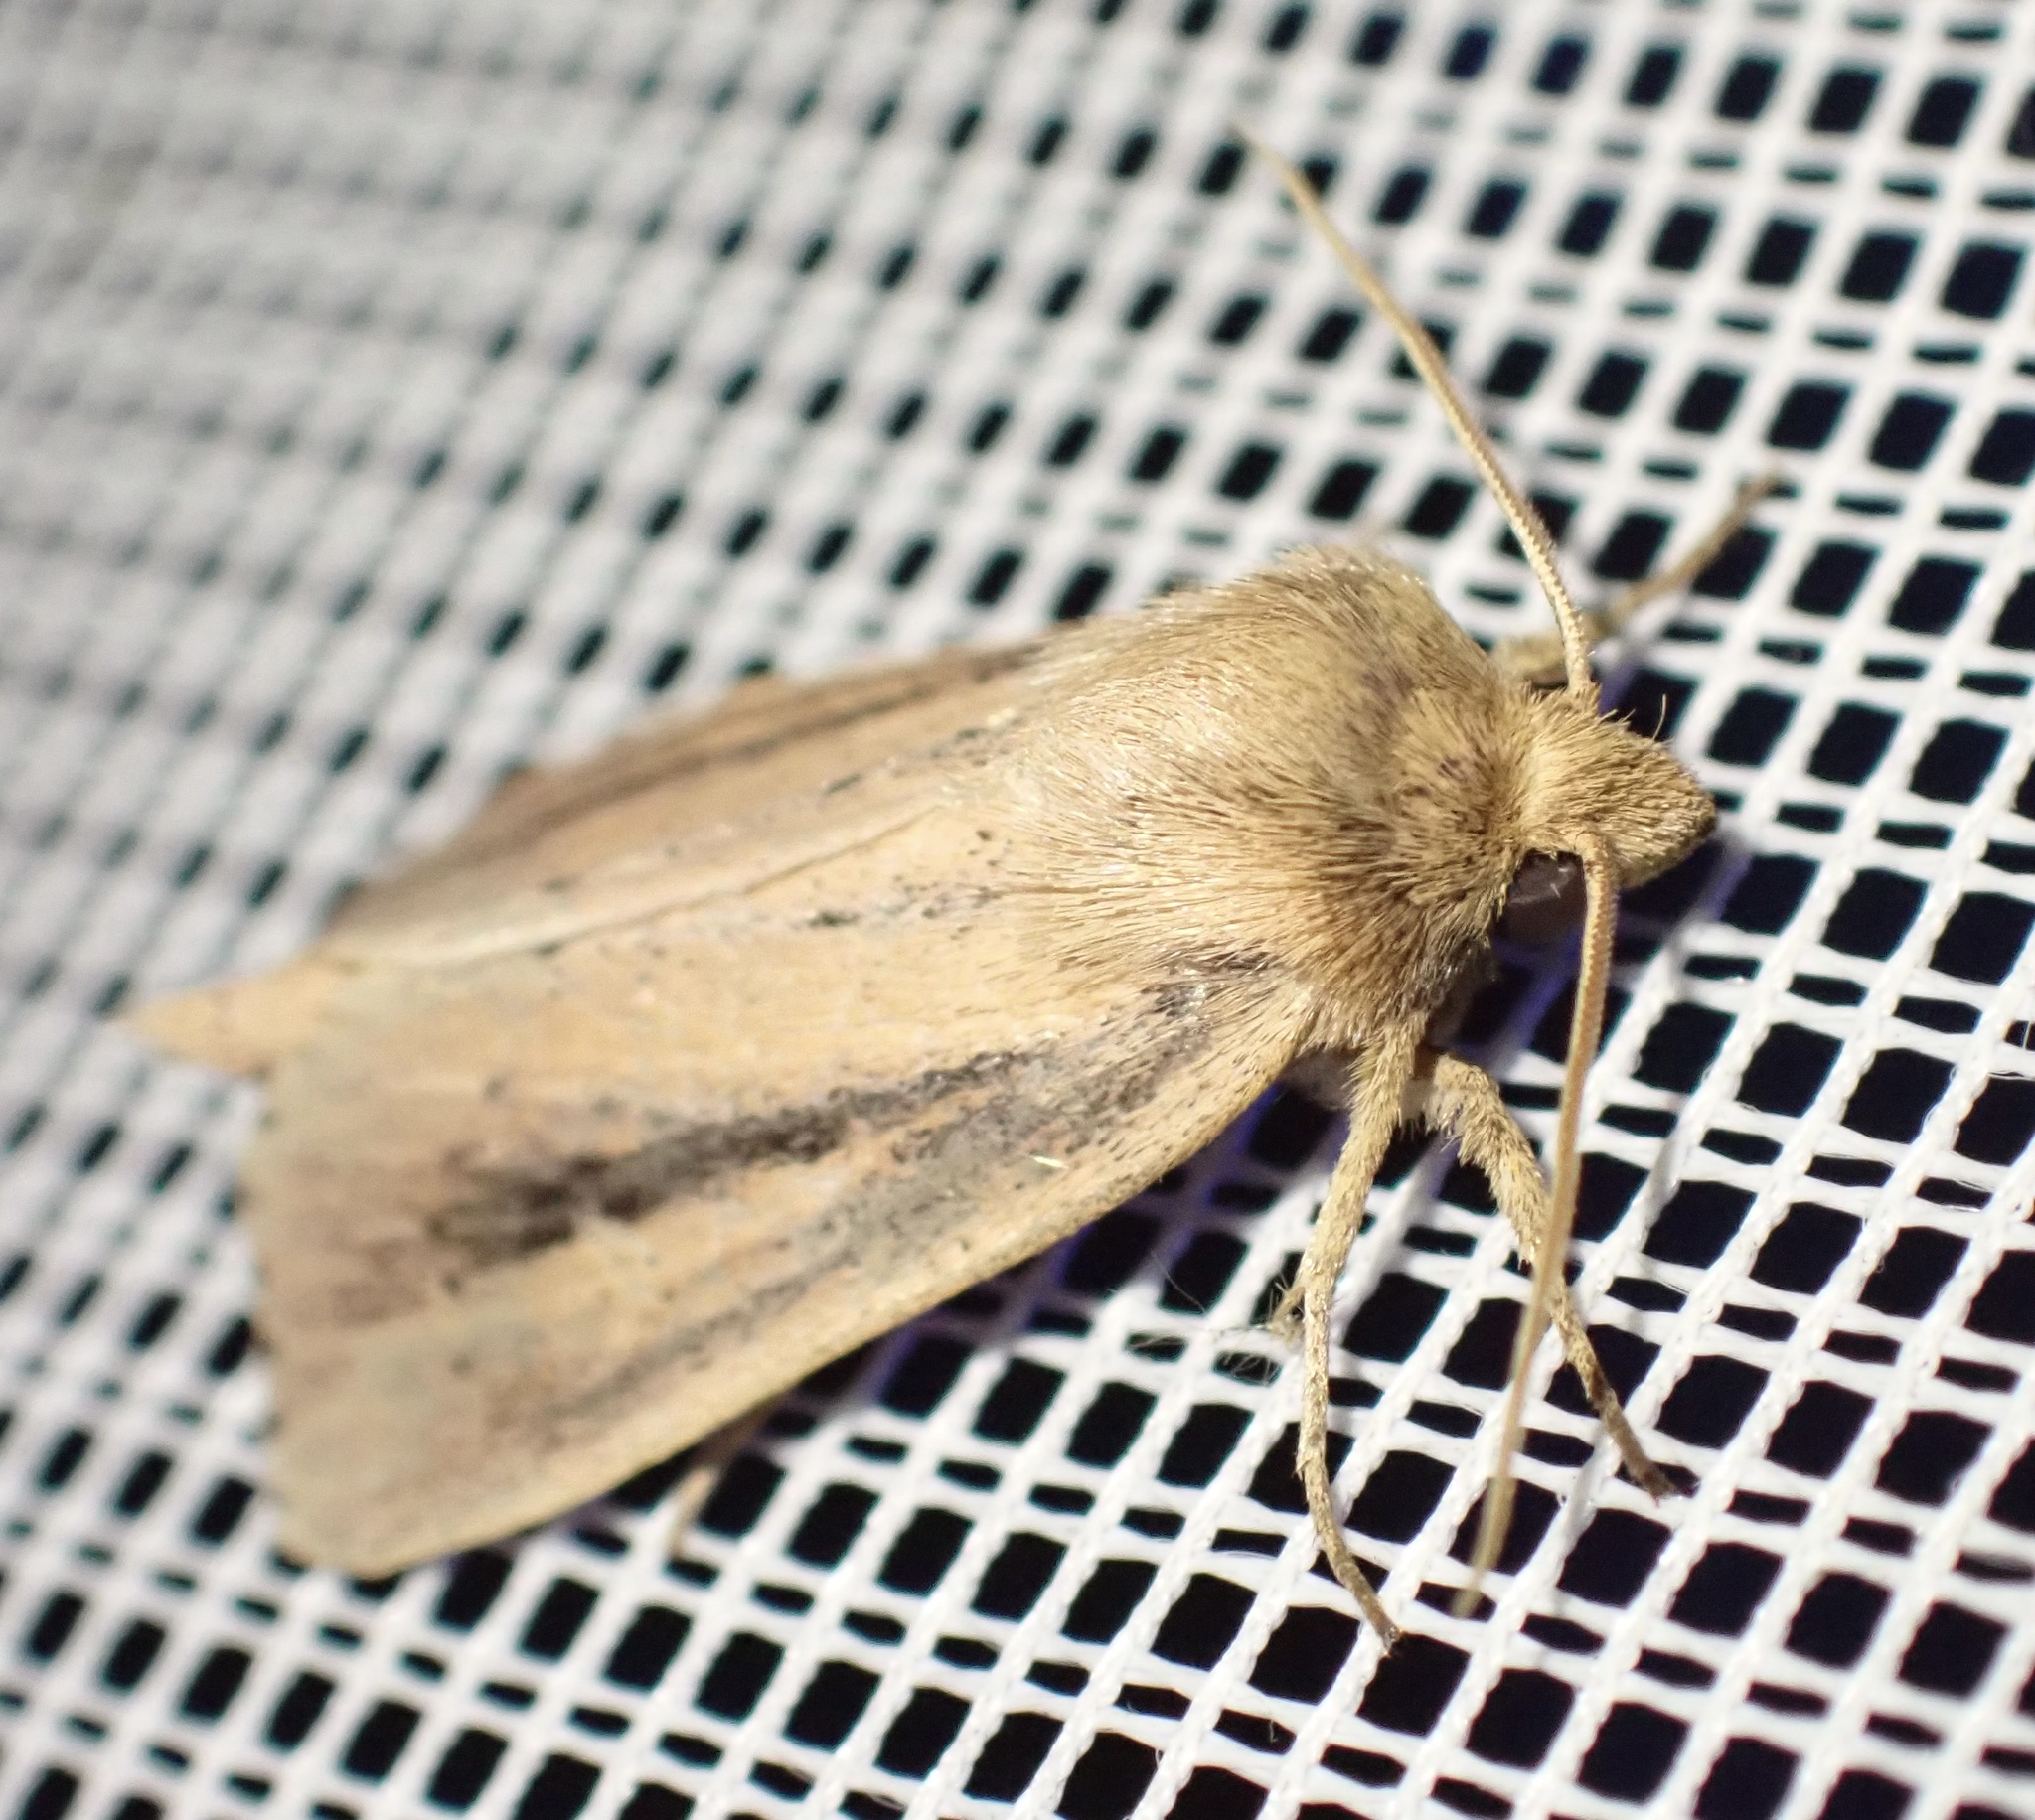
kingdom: Animalia
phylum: Arthropoda
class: Insecta
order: Lepidoptera
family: Noctuidae
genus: Globia
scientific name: Globia sparganii
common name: Webb's wainscot
